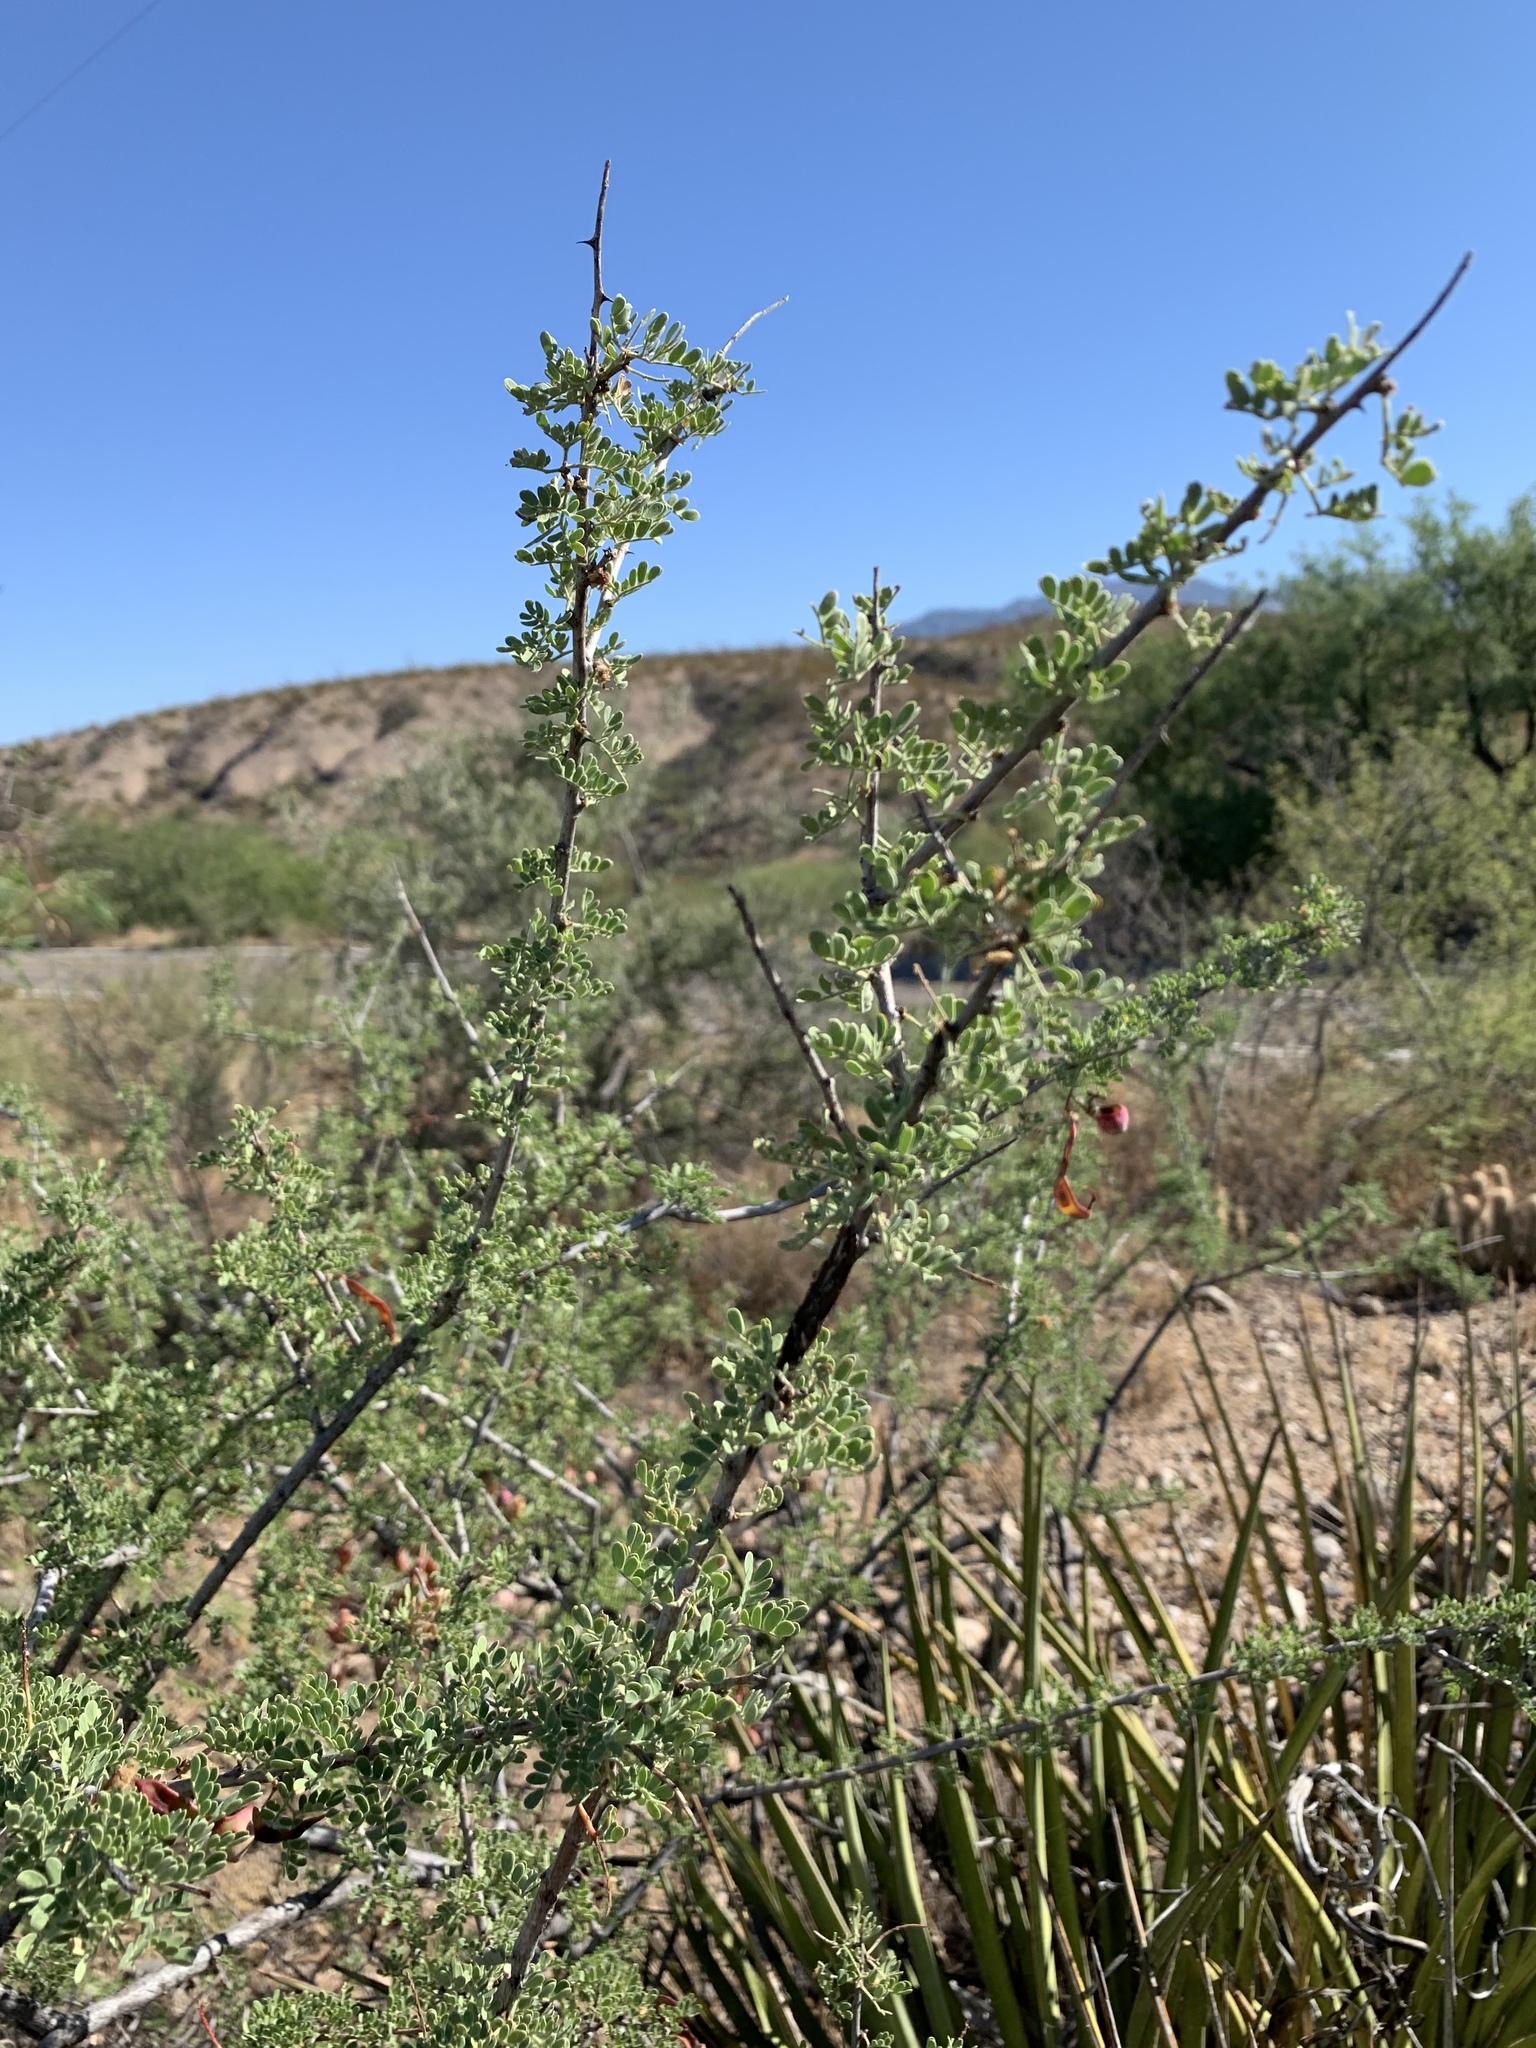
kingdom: Plantae
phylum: Tracheophyta
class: Magnoliopsida
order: Fabales
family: Fabaceae
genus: Senegalia
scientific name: Senegalia greggii
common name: Texas-mimosa
